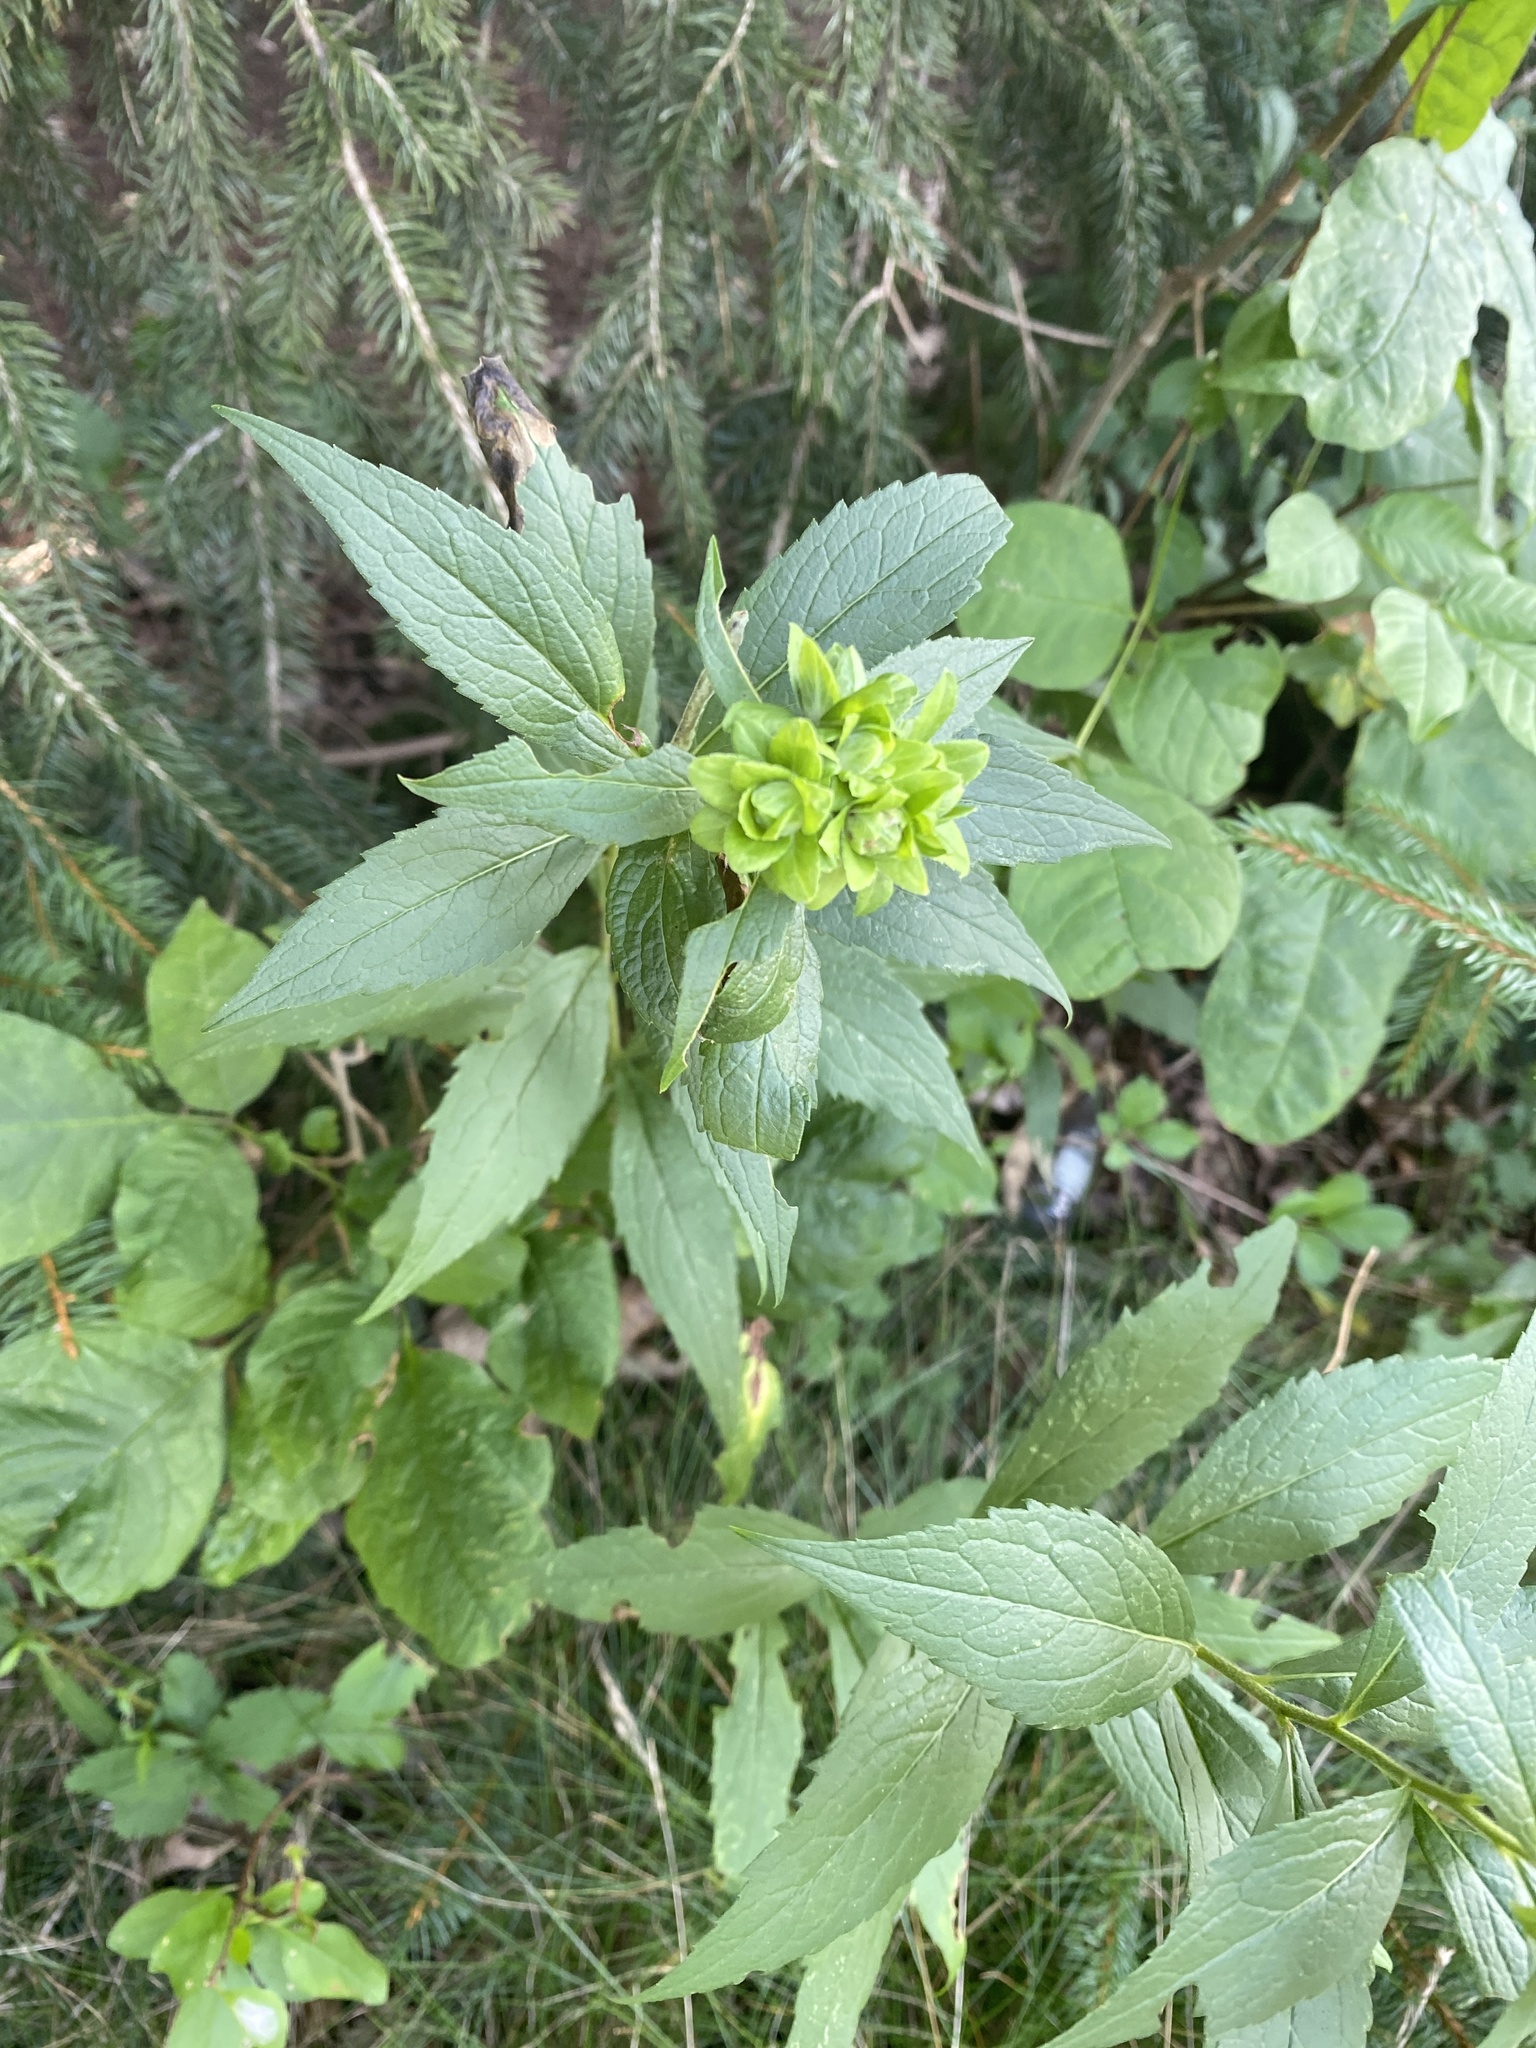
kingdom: Animalia
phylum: Arthropoda
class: Insecta
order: Diptera
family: Tephritidae
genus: Procecidochares
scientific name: Procecidochares atra
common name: Goldenrod brussels sprout gall fly
